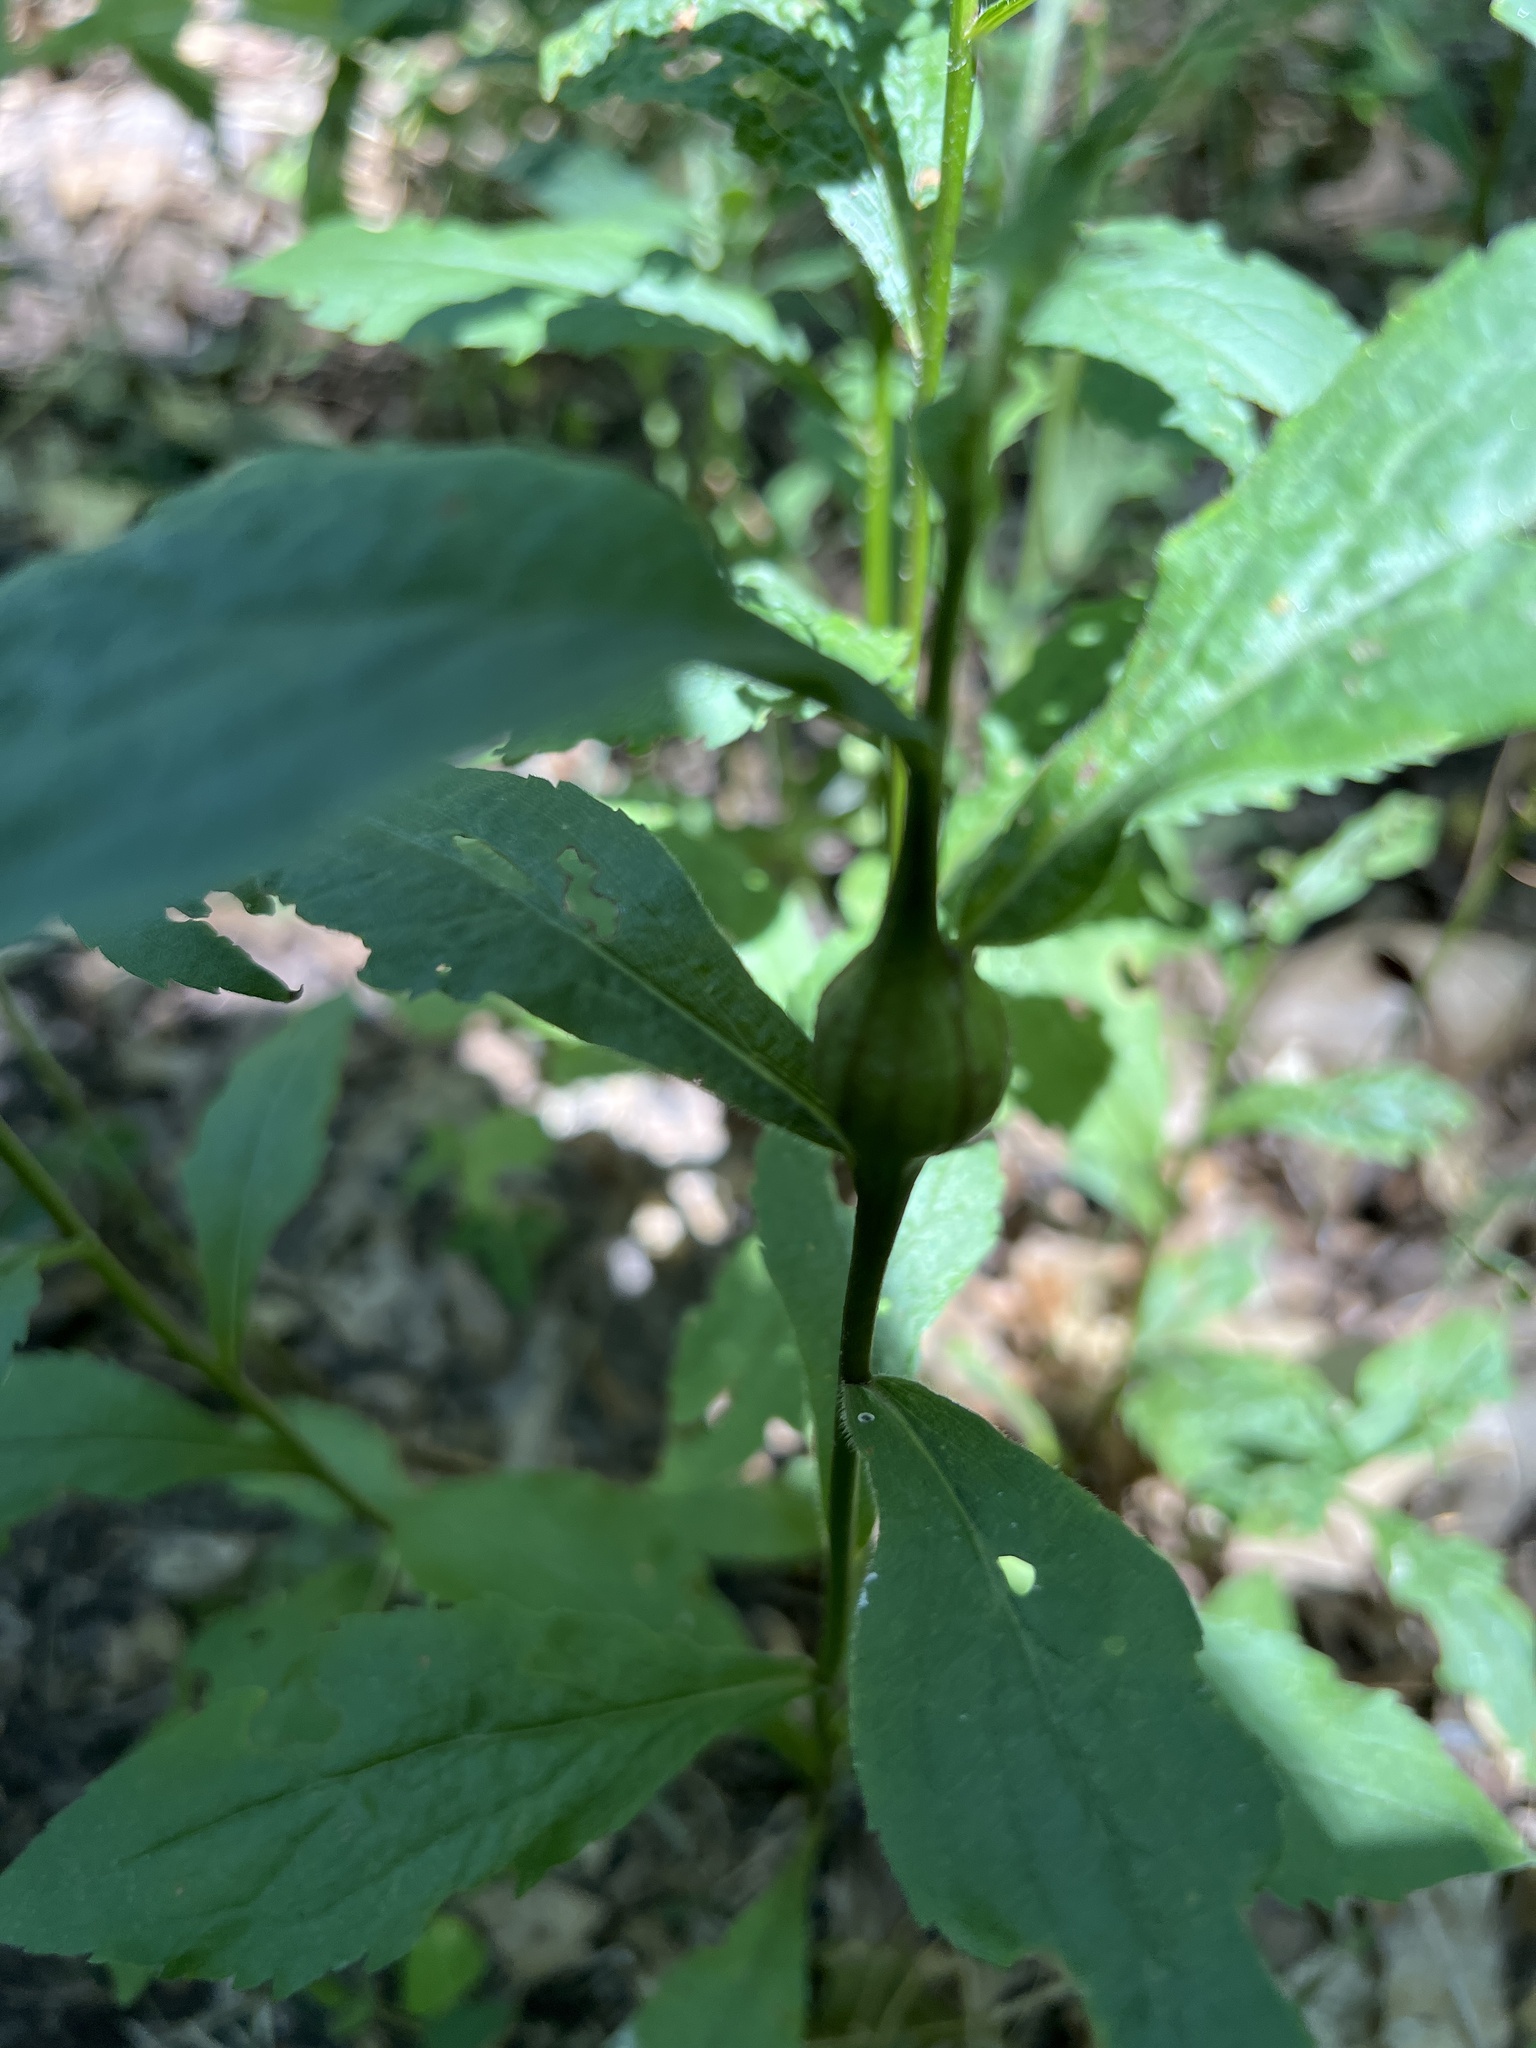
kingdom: Animalia
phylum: Arthropoda
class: Insecta
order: Diptera
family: Tephritidae
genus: Eurosta
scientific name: Eurosta solidaginis
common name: Goldenrod gall fly
